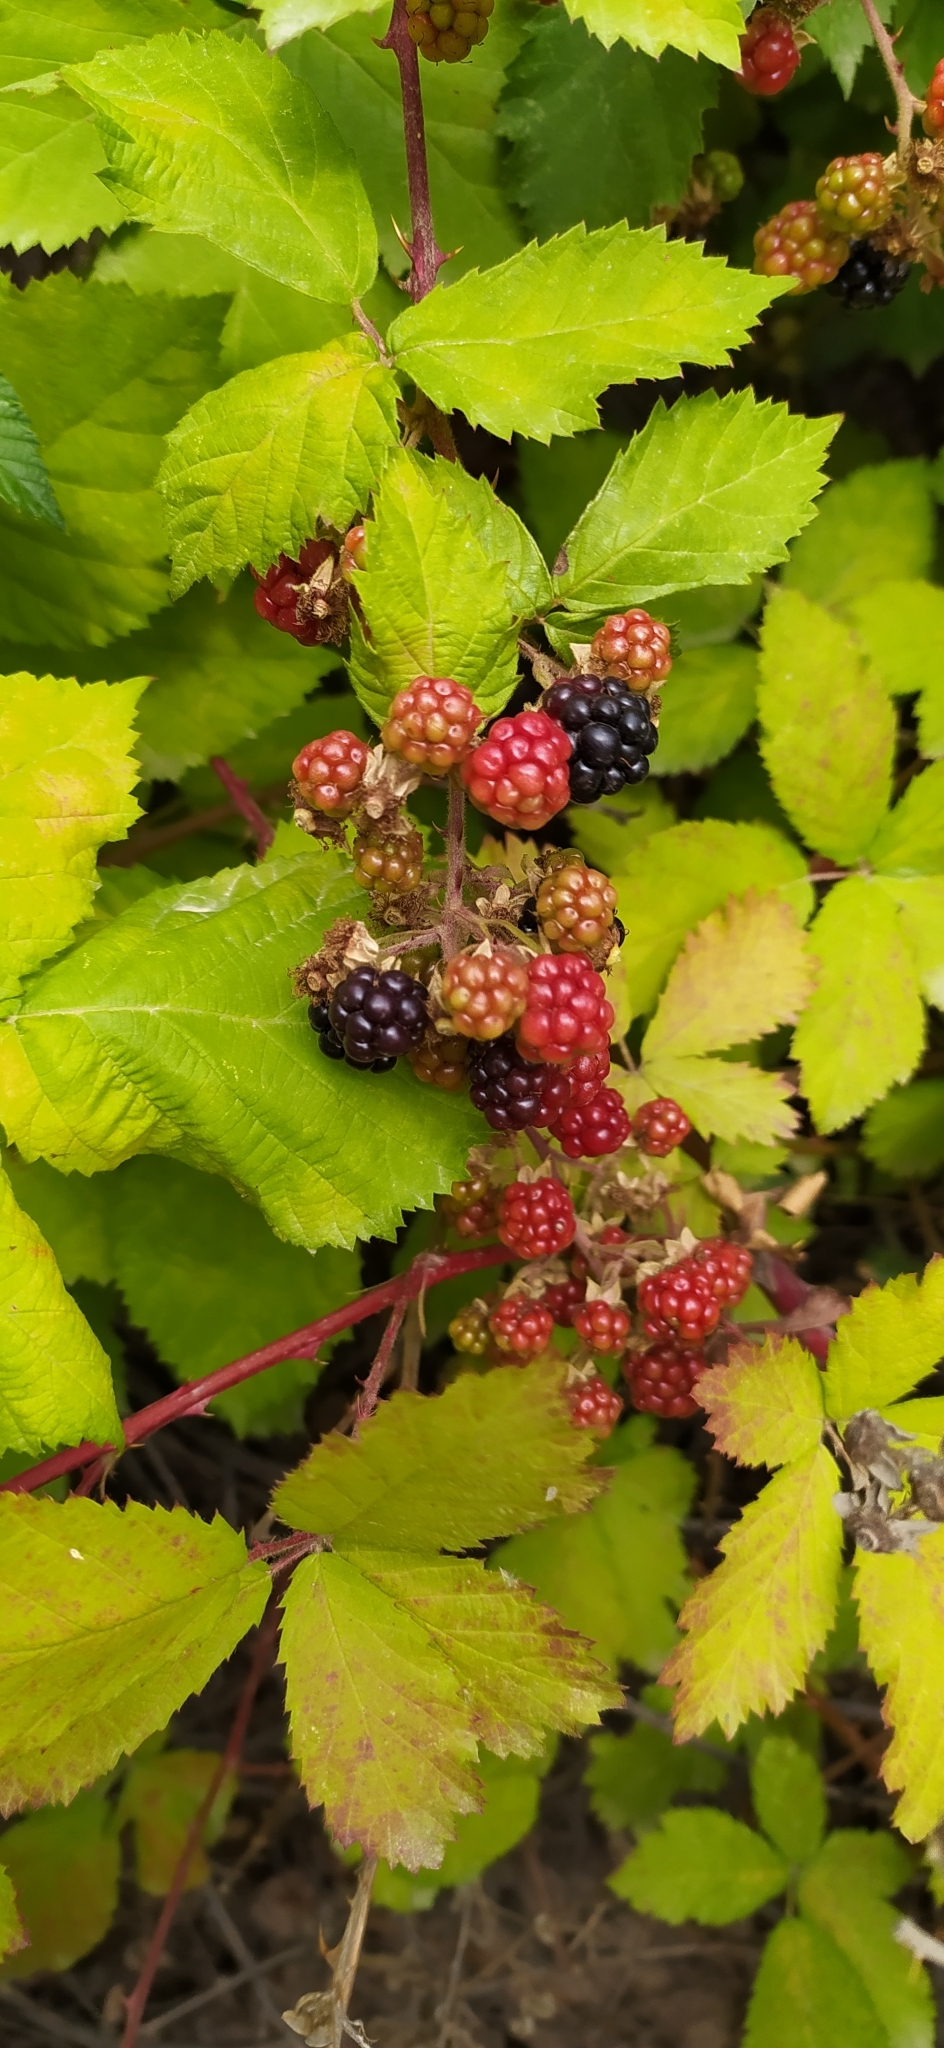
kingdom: Plantae
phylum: Tracheophyta
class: Magnoliopsida
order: Rosales
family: Rosaceae
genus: Rubus
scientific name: Rubus sanctus
